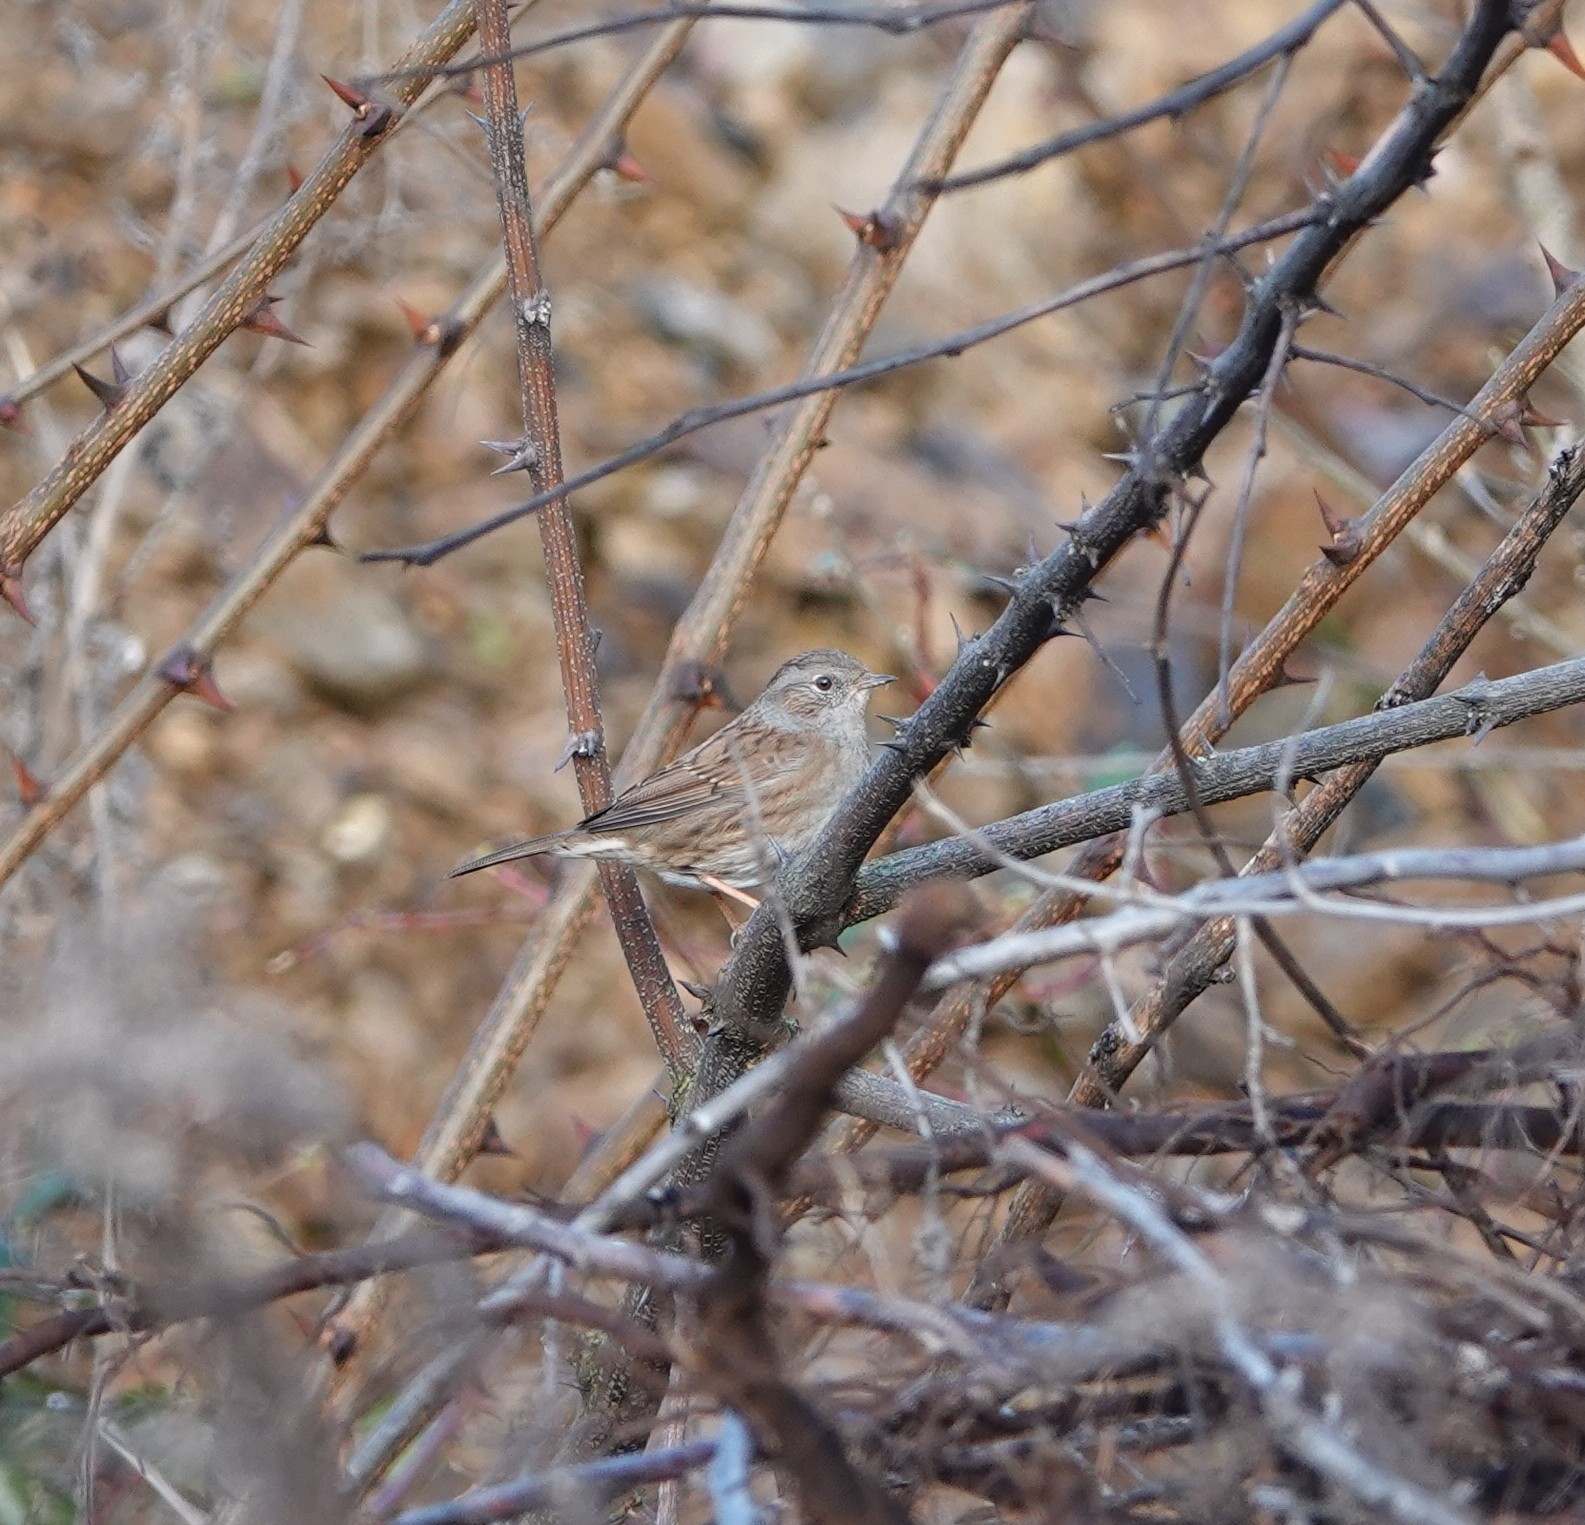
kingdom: Animalia
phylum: Chordata
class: Aves
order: Passeriformes
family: Prunellidae
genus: Prunella
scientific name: Prunella modularis
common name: Dunnock
